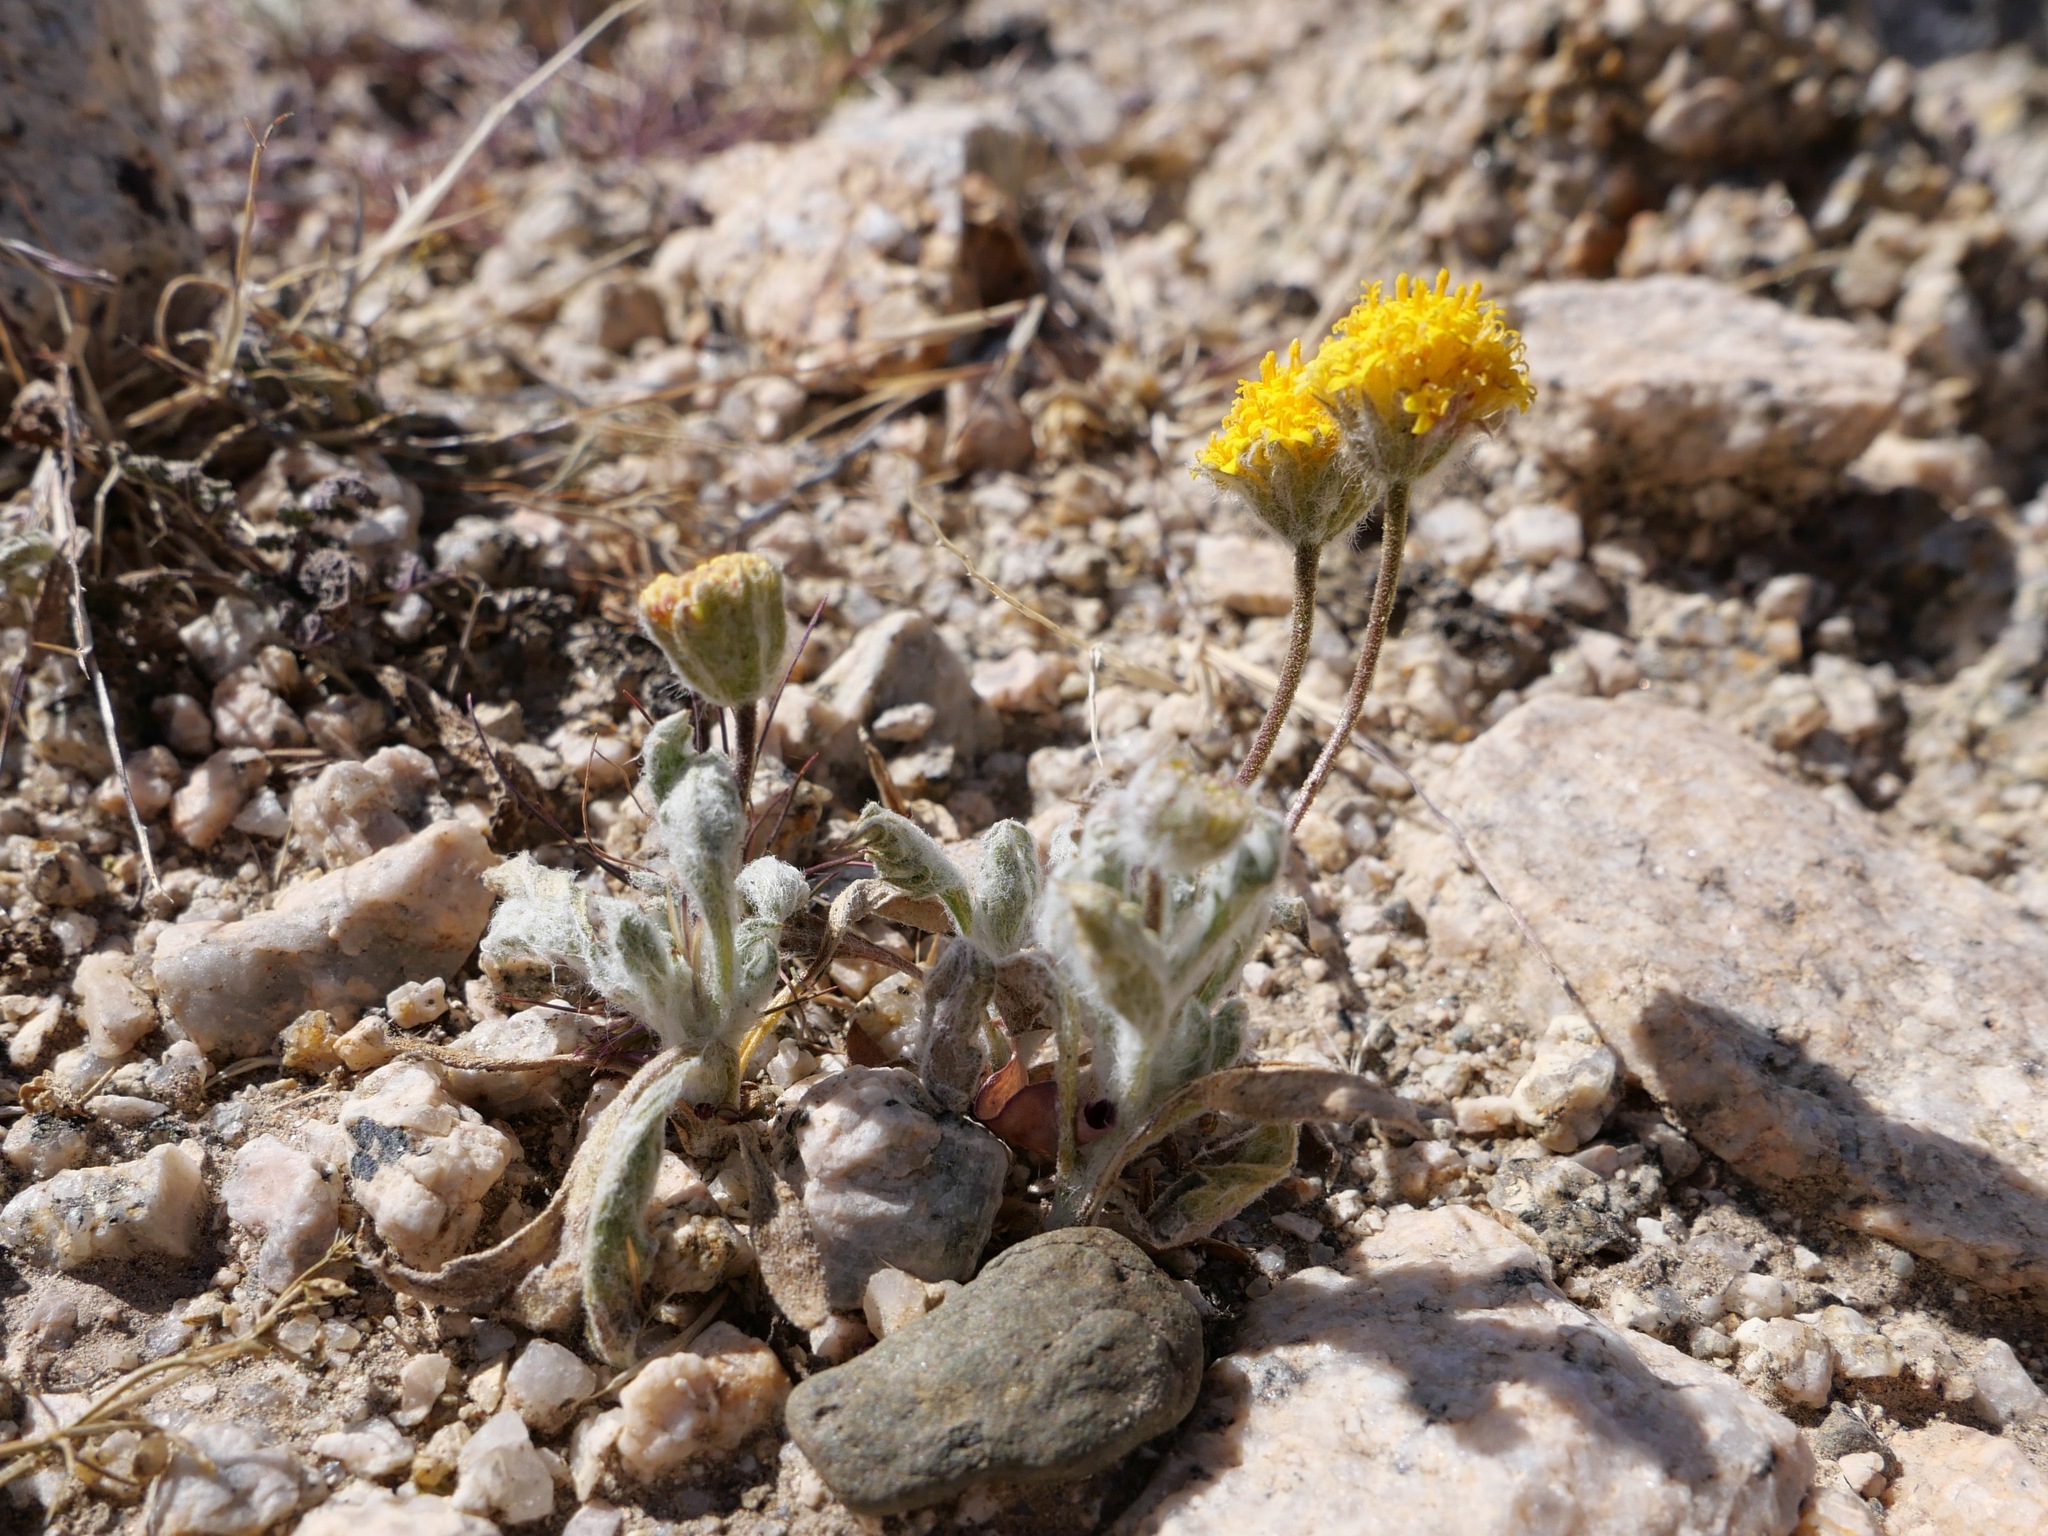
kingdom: Plantae
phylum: Tracheophyta
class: Magnoliopsida
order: Asterales
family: Asteraceae
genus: Trichoptilium
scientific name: Trichoptilium incisum
